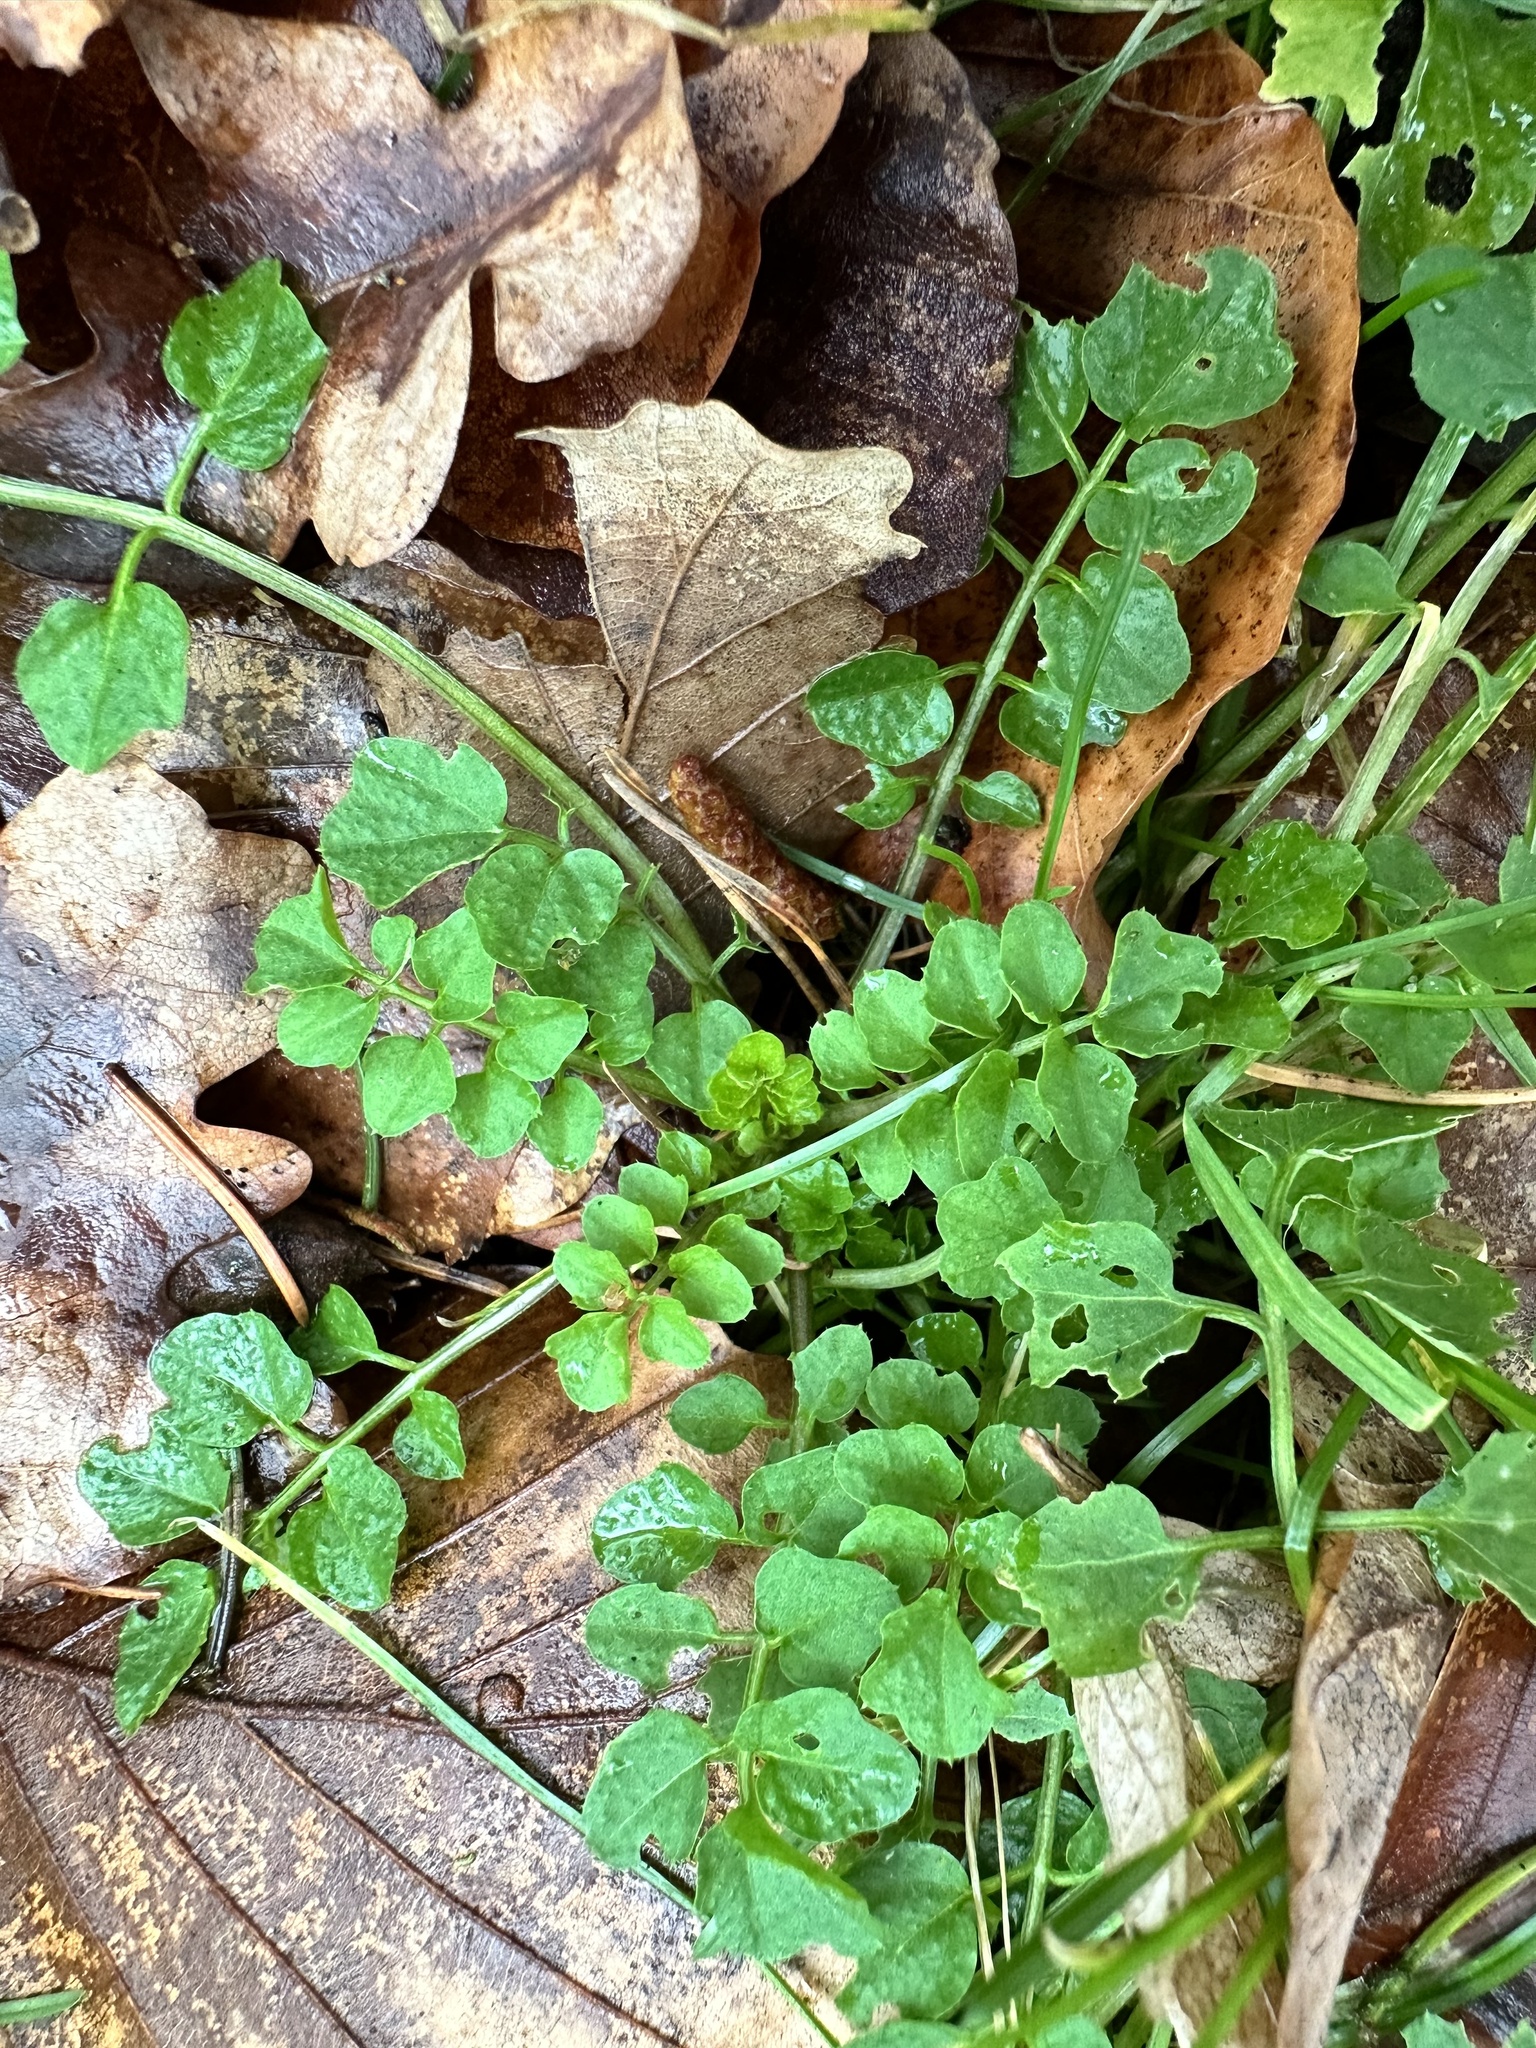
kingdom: Plantae
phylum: Tracheophyta
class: Magnoliopsida
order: Brassicales
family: Brassicaceae
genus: Cardamine
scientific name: Cardamine flexuosa
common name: Woodland bittercress
